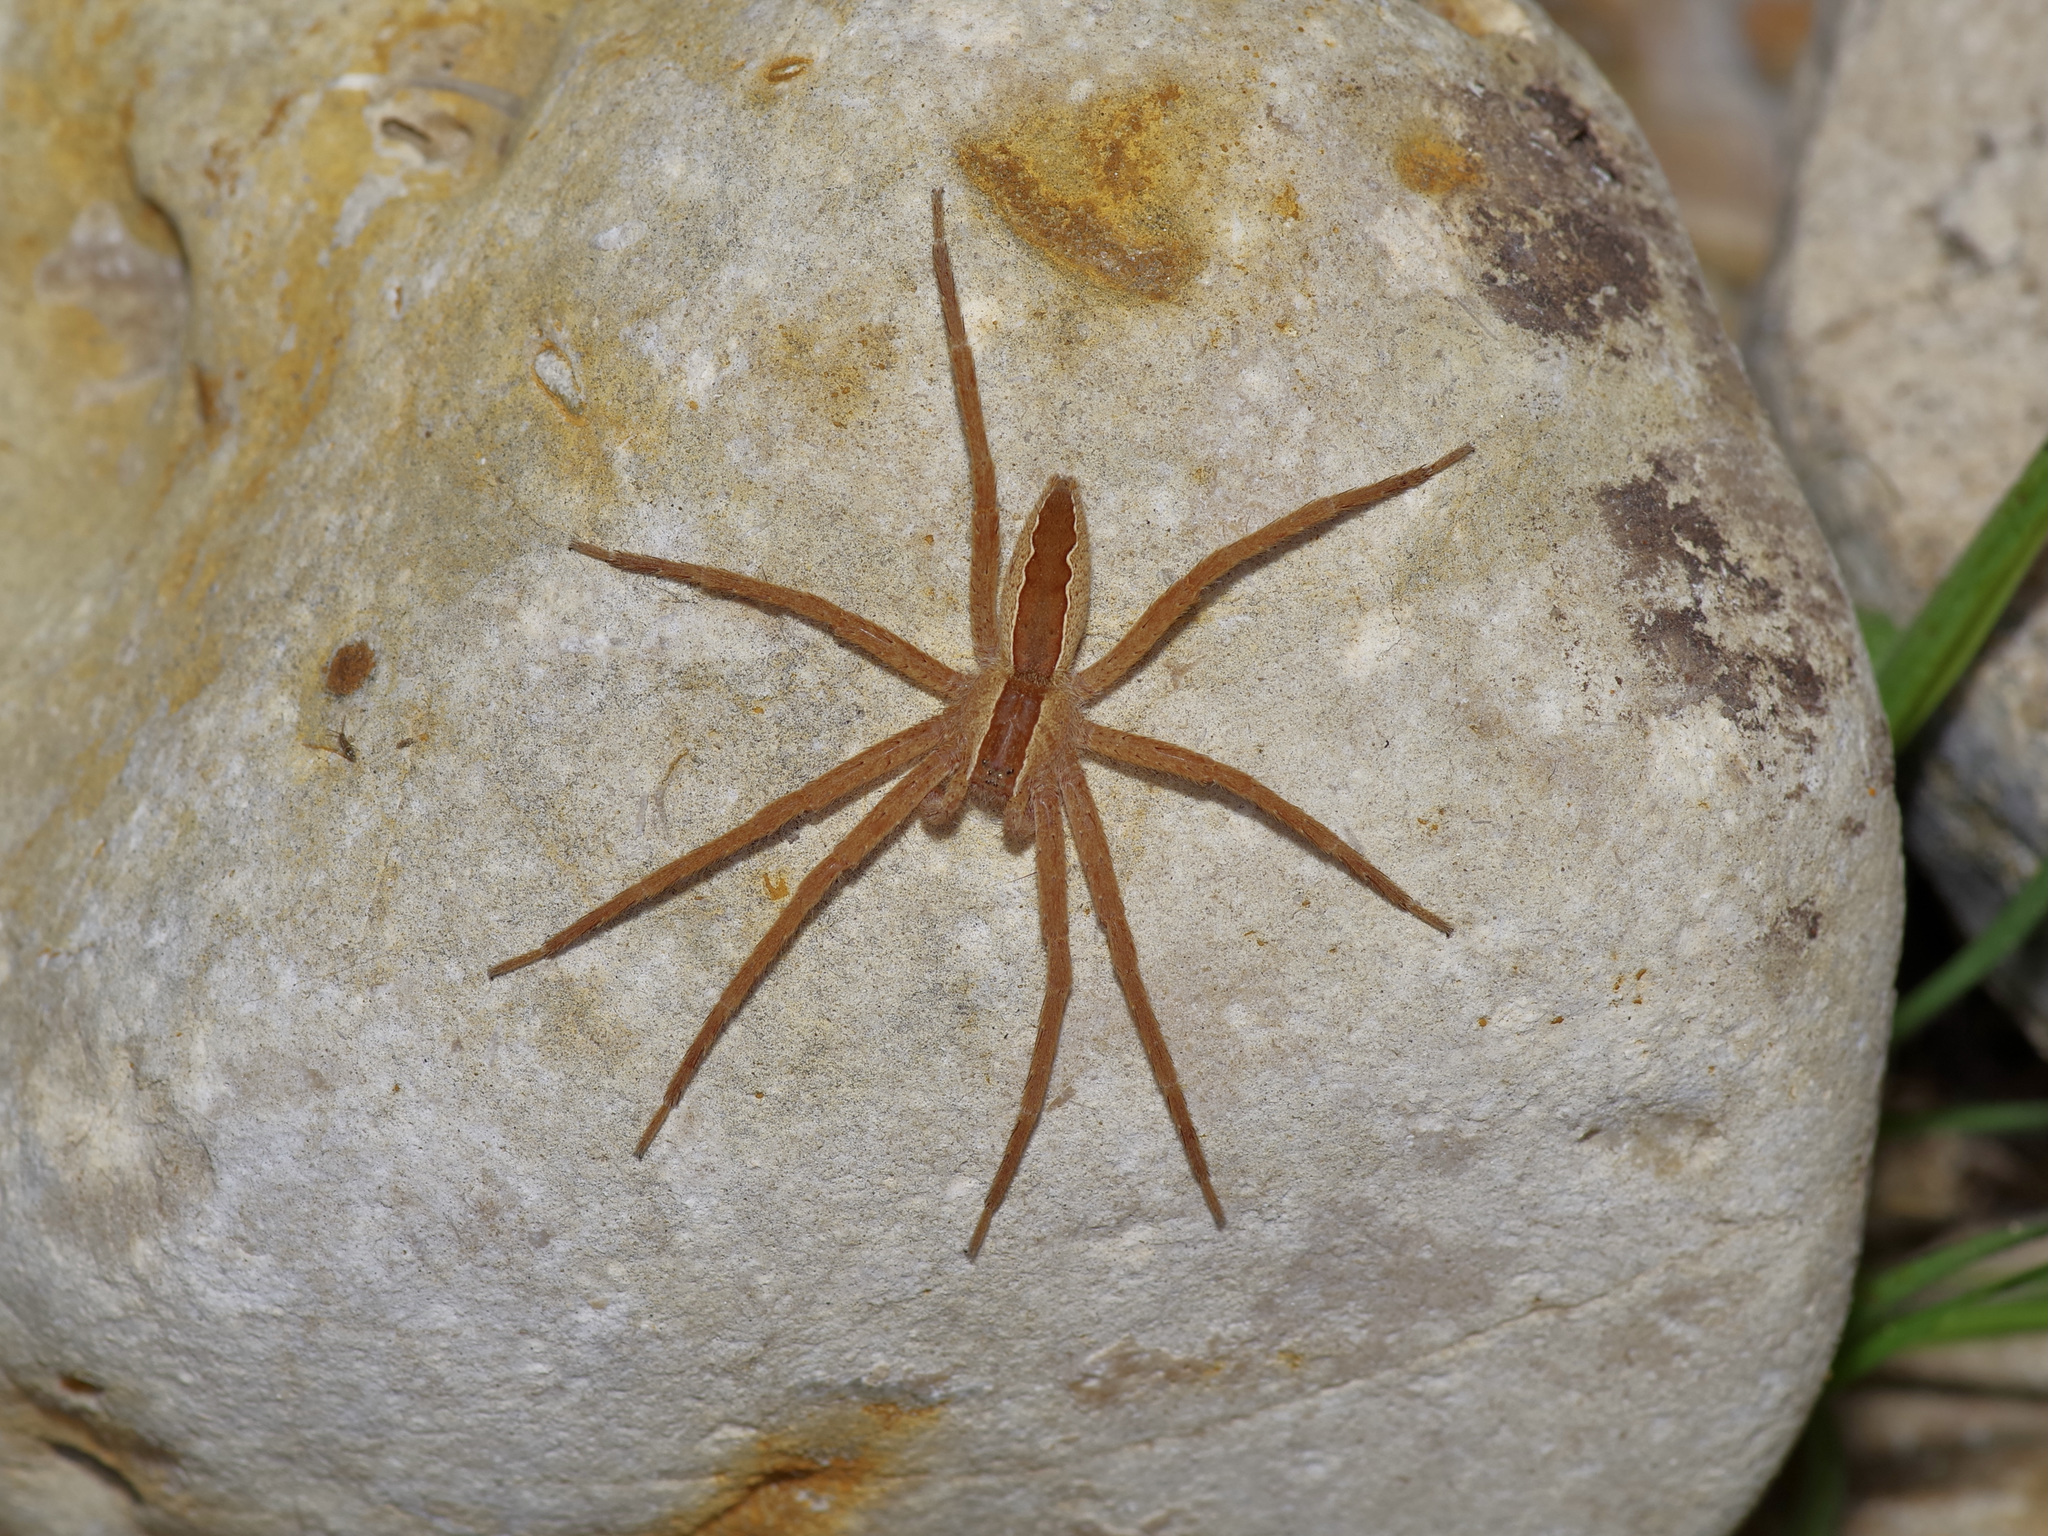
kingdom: Animalia
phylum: Arthropoda
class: Arachnida
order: Araneae
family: Pisauridae
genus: Pisaurina
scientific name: Pisaurina mira
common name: American nursery web spider
